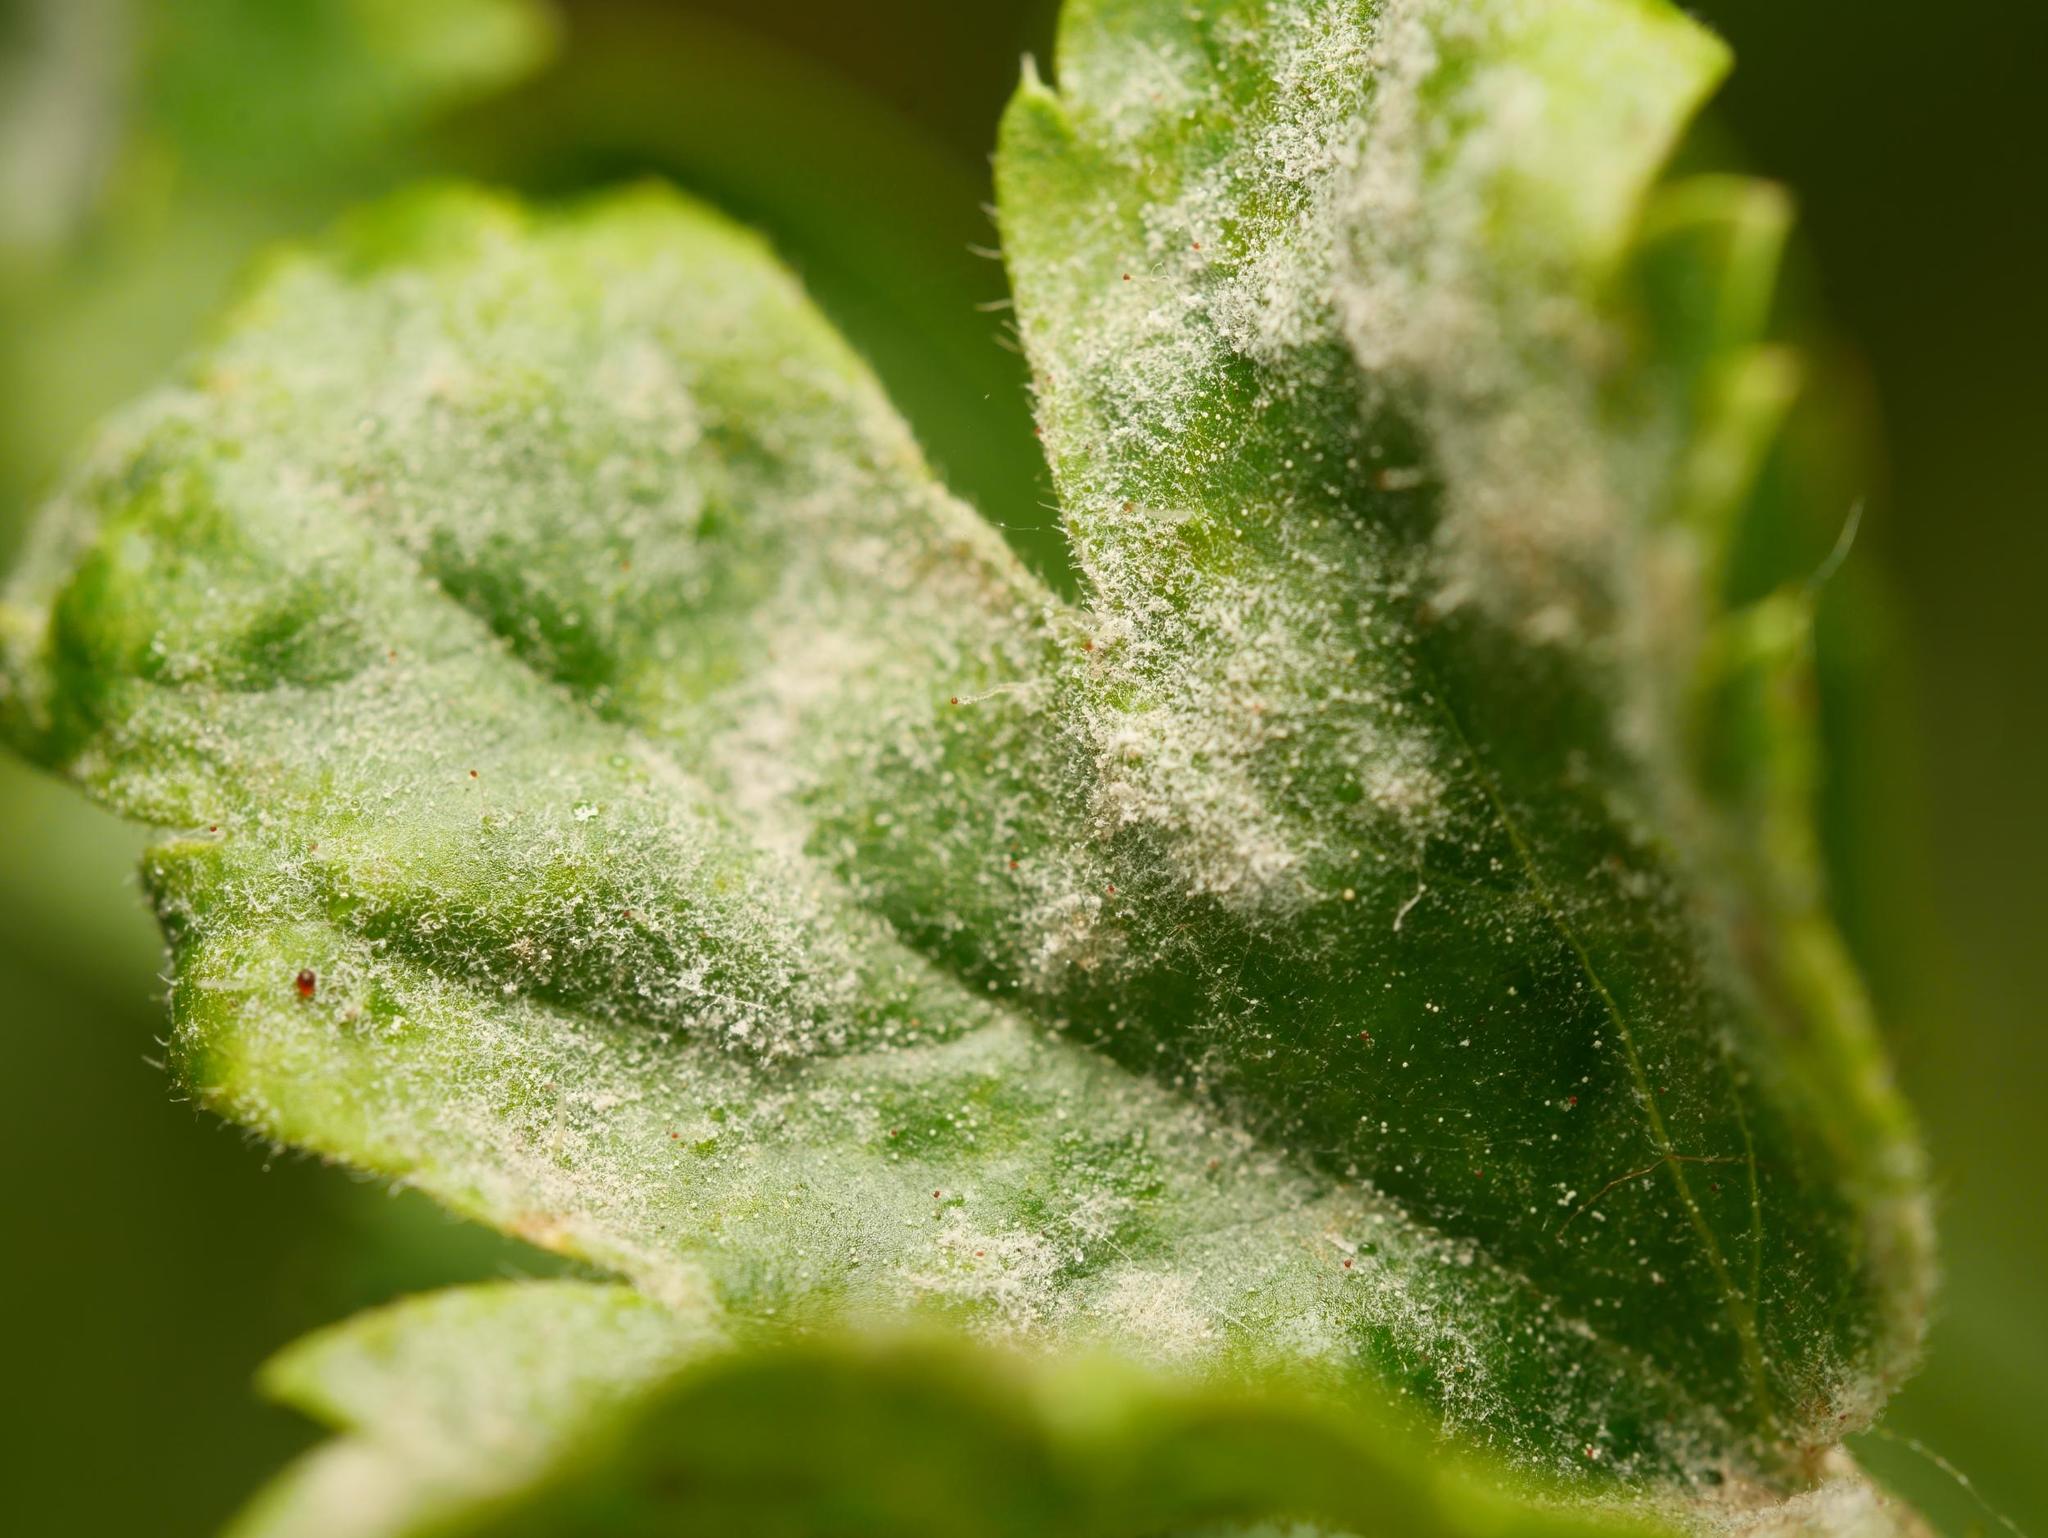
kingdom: Fungi
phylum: Ascomycota
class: Leotiomycetes
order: Helotiales
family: Erysiphaceae
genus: Podosphaera
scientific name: Podosphaera mors-uvae
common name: American gooseberry mildew
